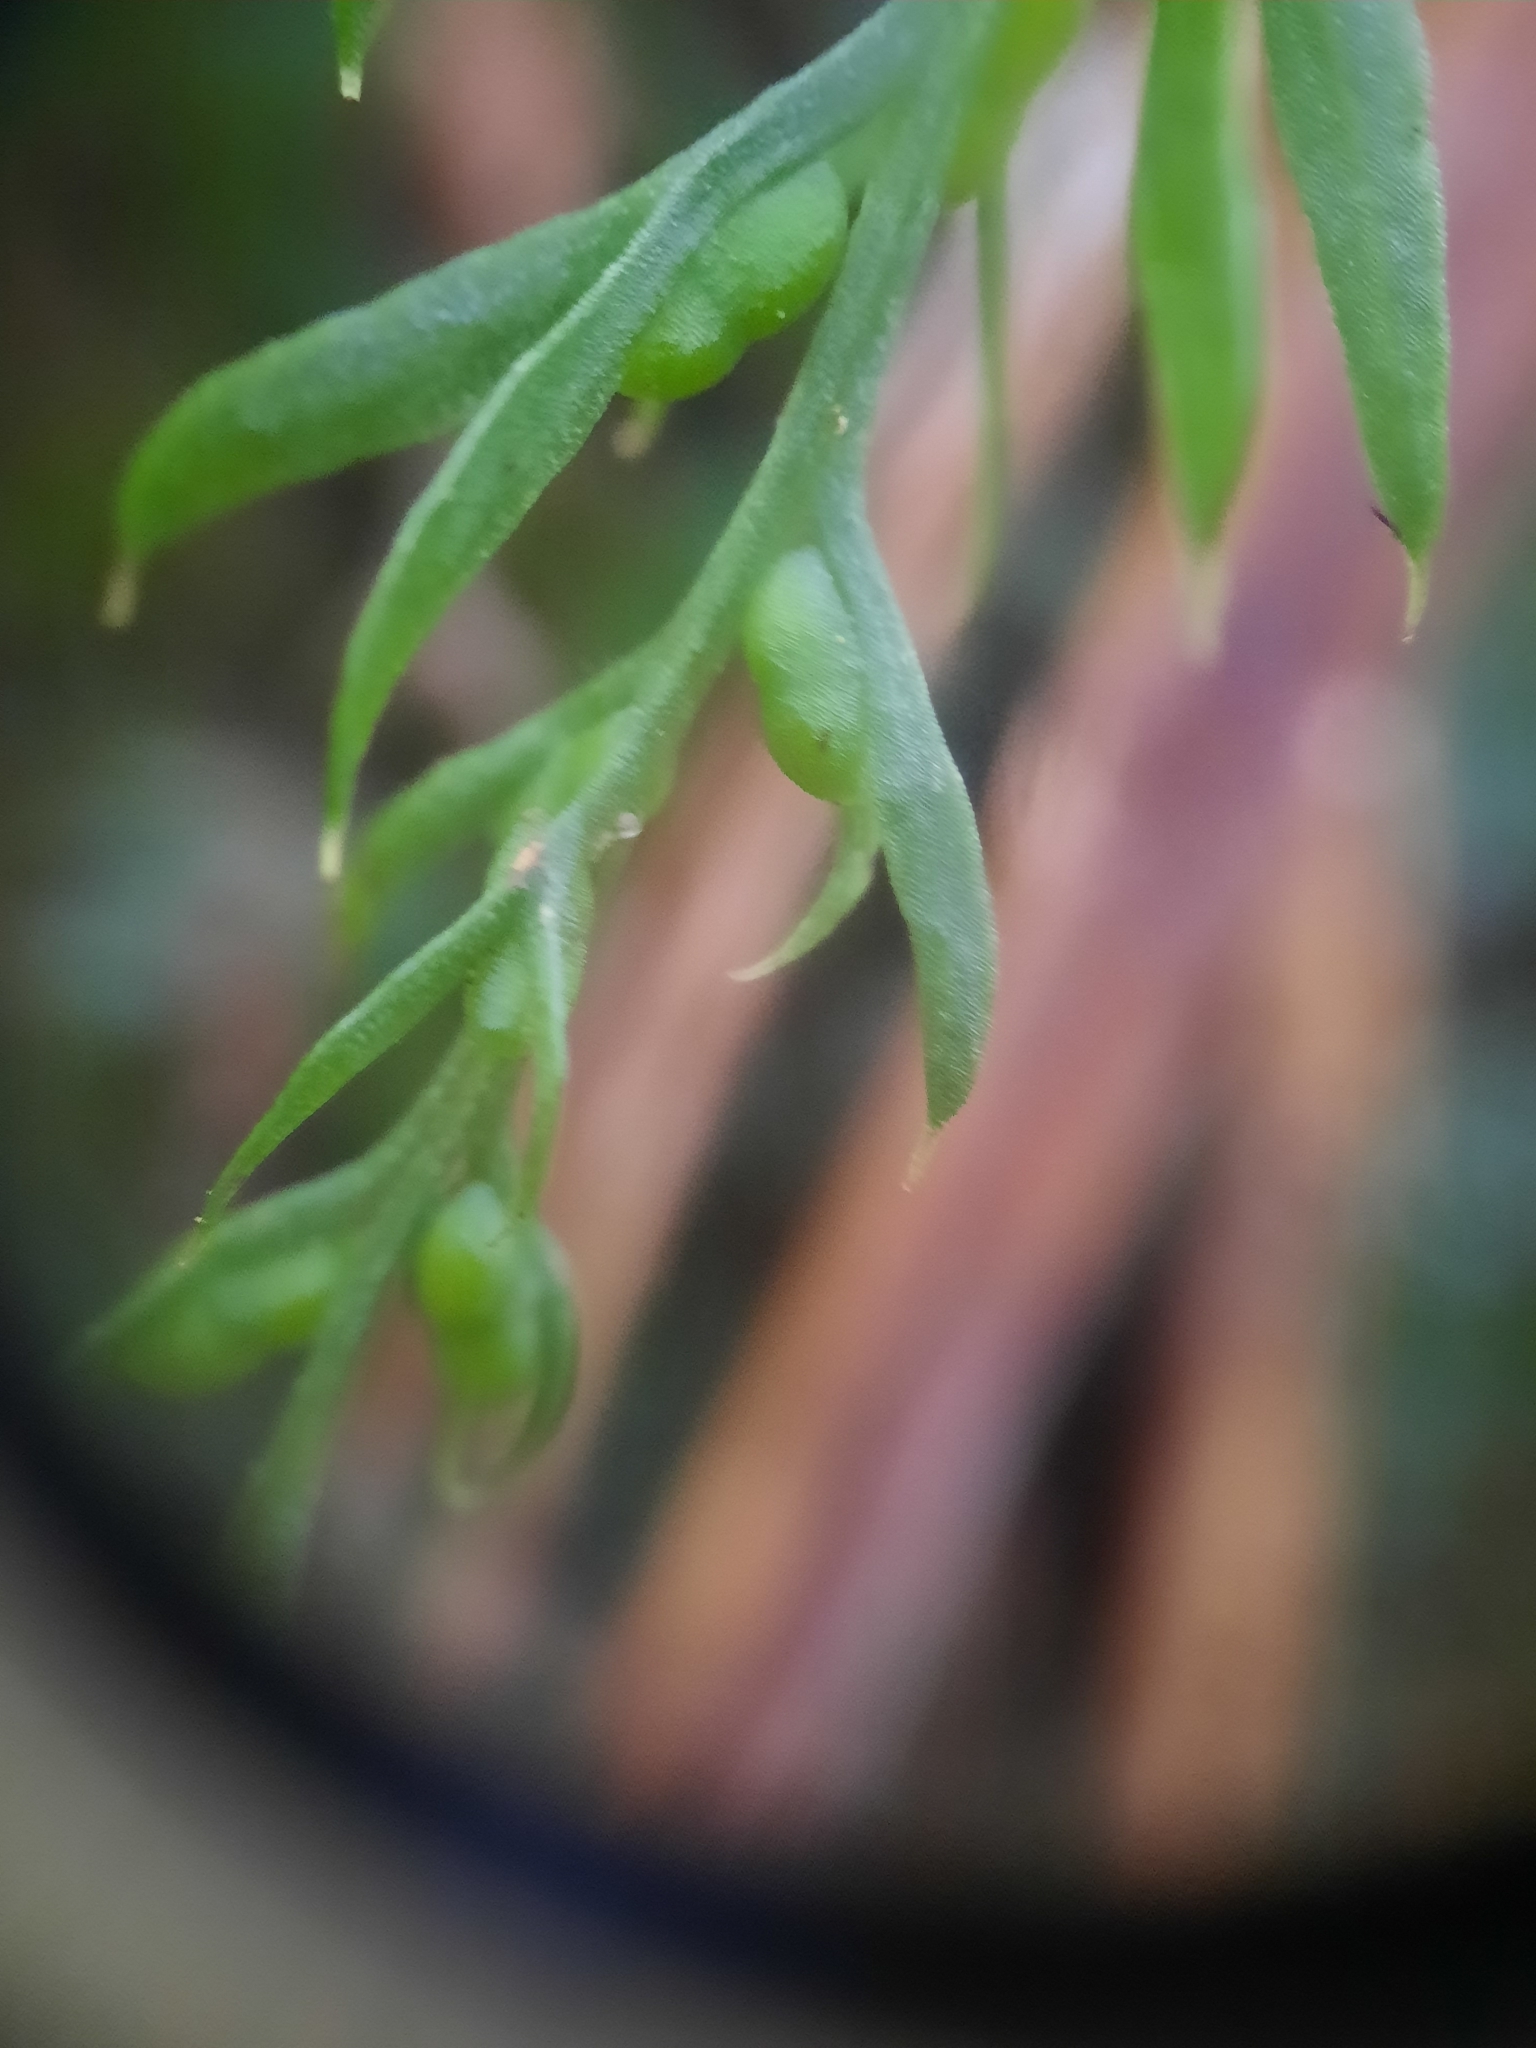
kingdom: Plantae
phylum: Tracheophyta
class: Polypodiopsida
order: Psilotales
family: Psilotaceae
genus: Tmesipteris
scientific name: Tmesipteris elongata
